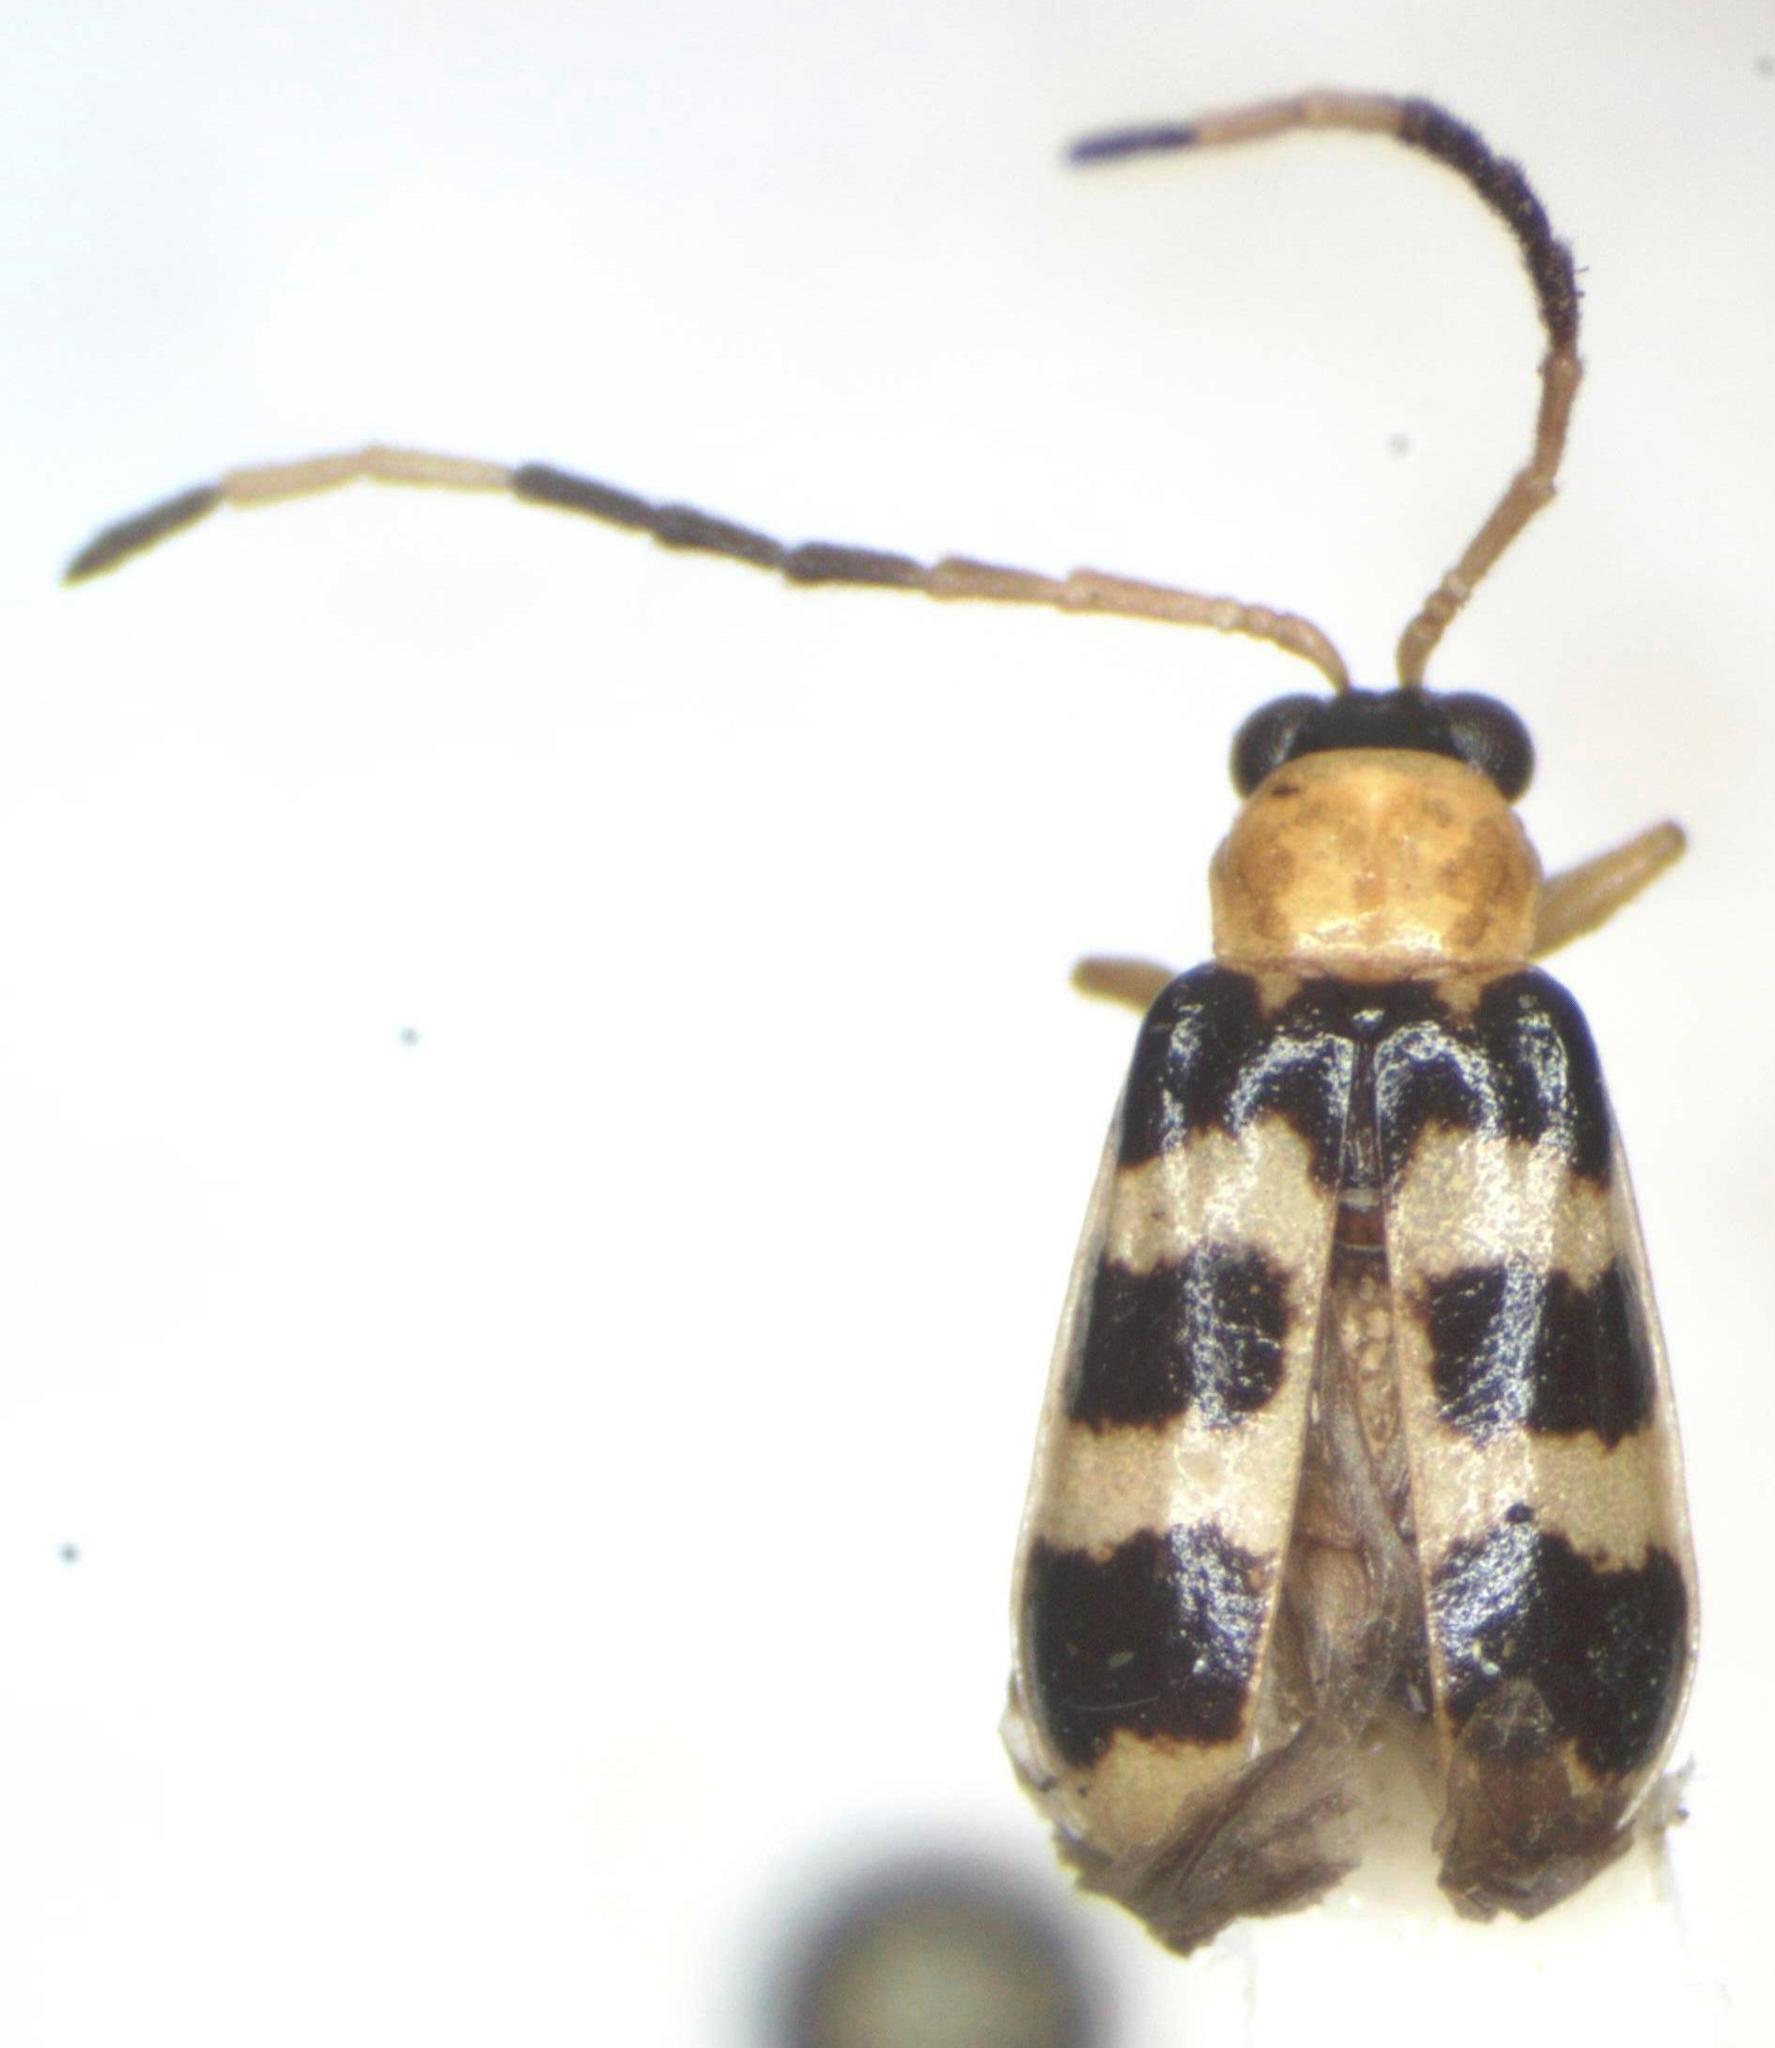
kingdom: Animalia
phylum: Arthropoda
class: Insecta
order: Coleoptera
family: Chrysomelidae
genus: Diabrotica
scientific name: Diabrotica
